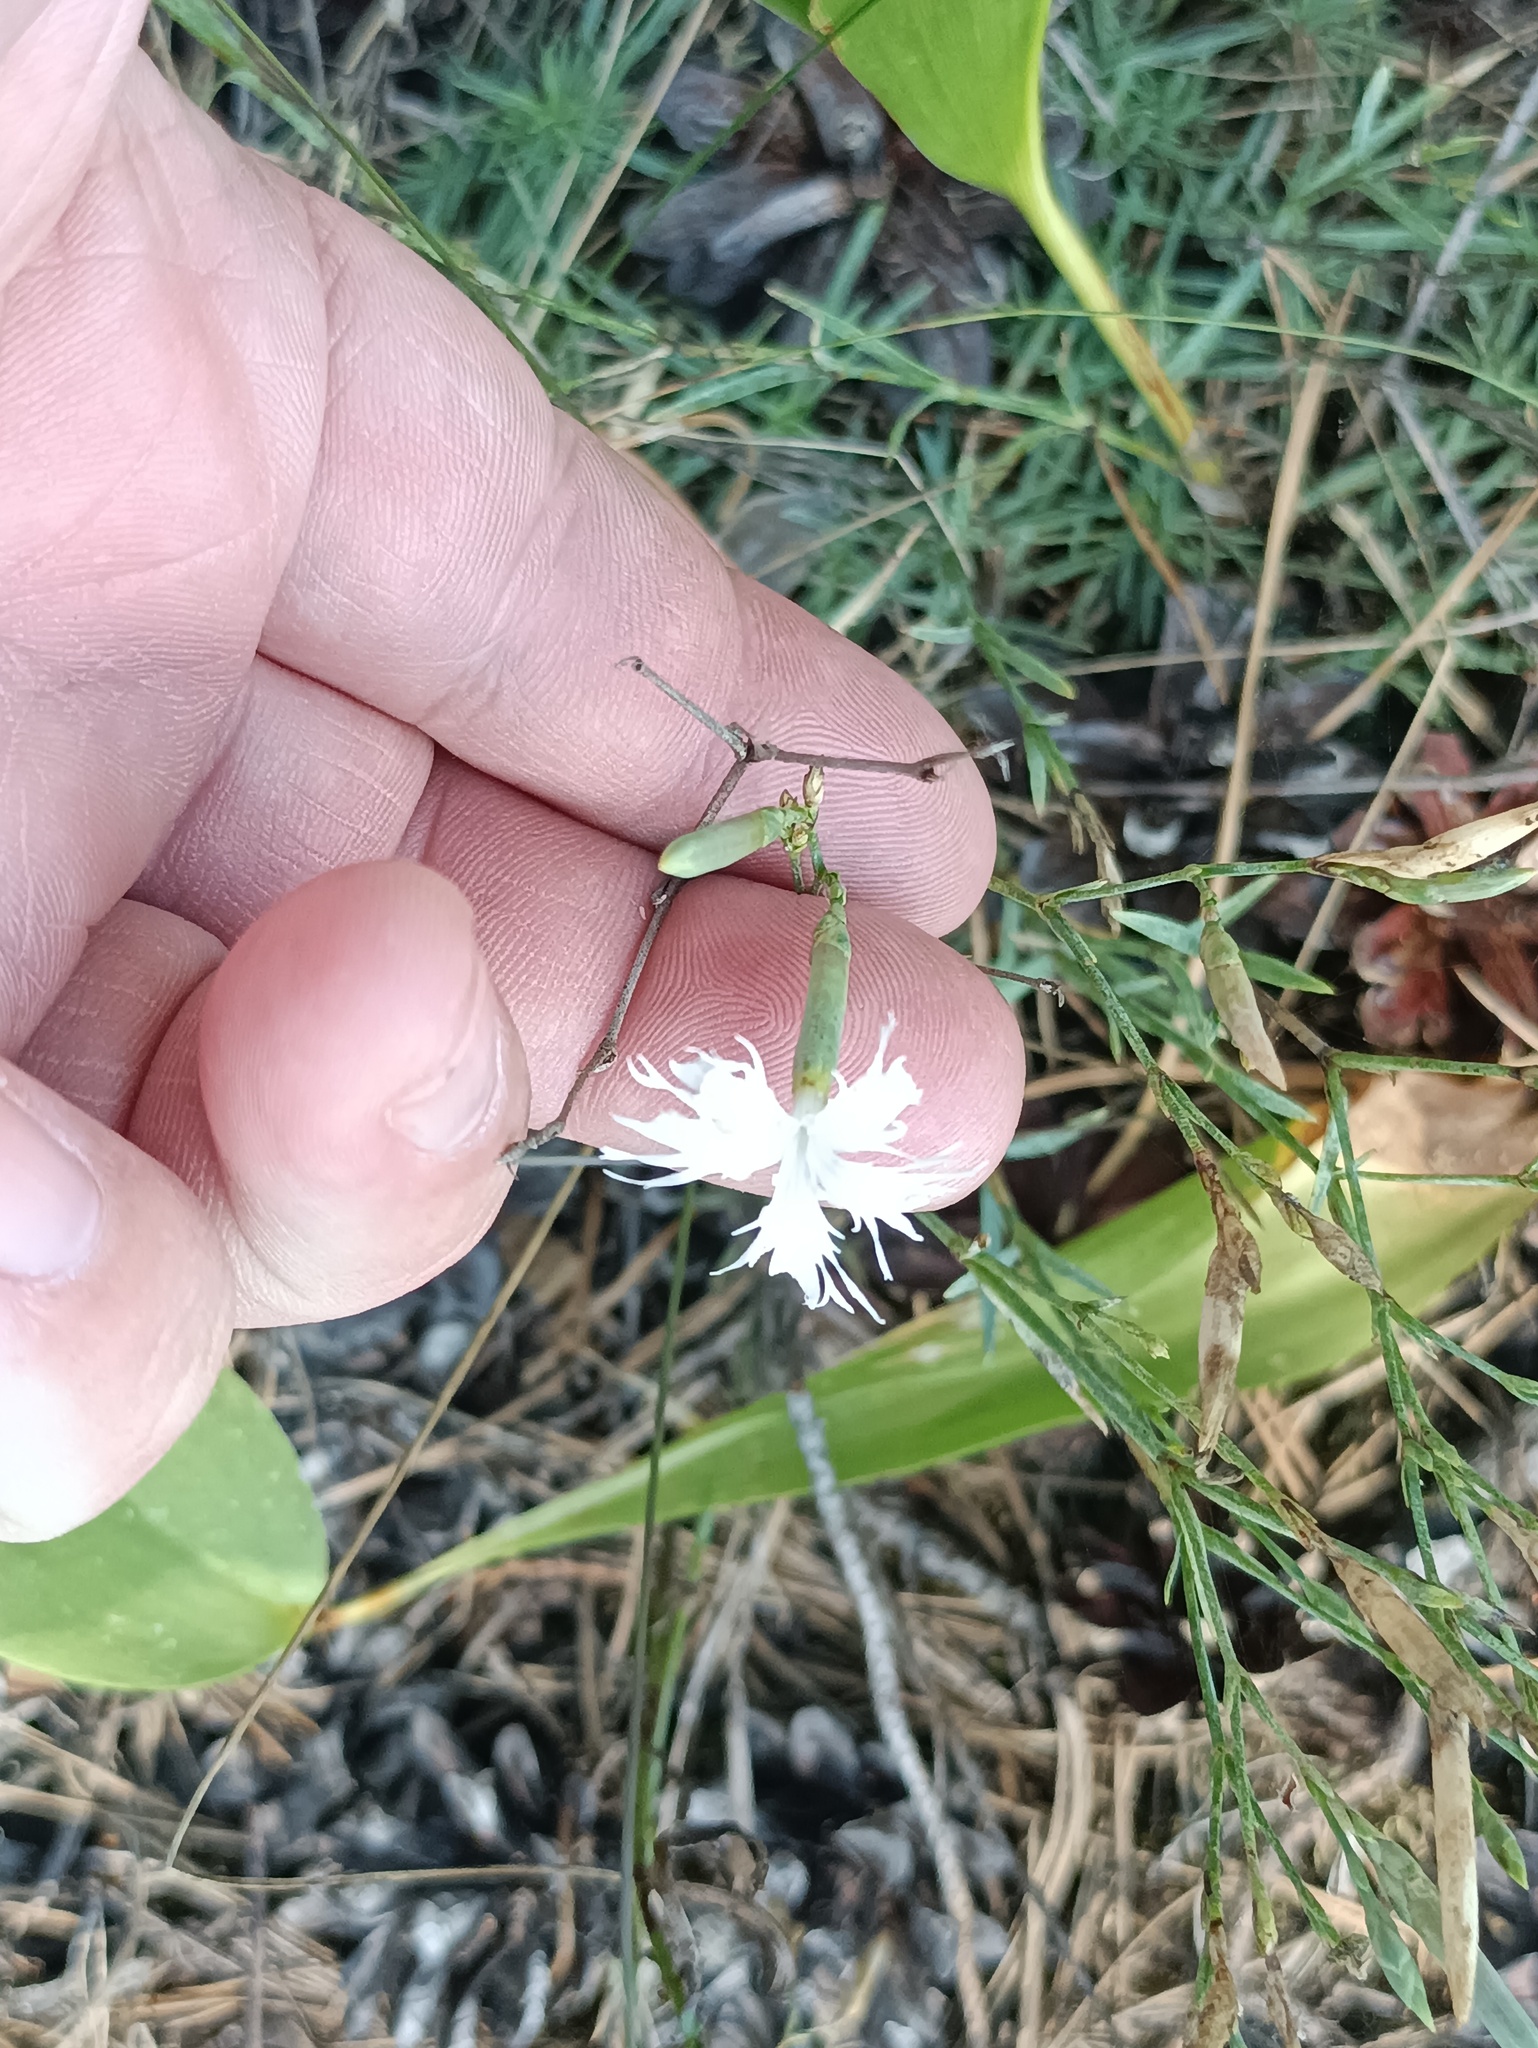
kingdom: Plantae
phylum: Tracheophyta
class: Magnoliopsida
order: Caryophyllales
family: Caryophyllaceae
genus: Dianthus
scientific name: Dianthus arenarius
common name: Stone pink
